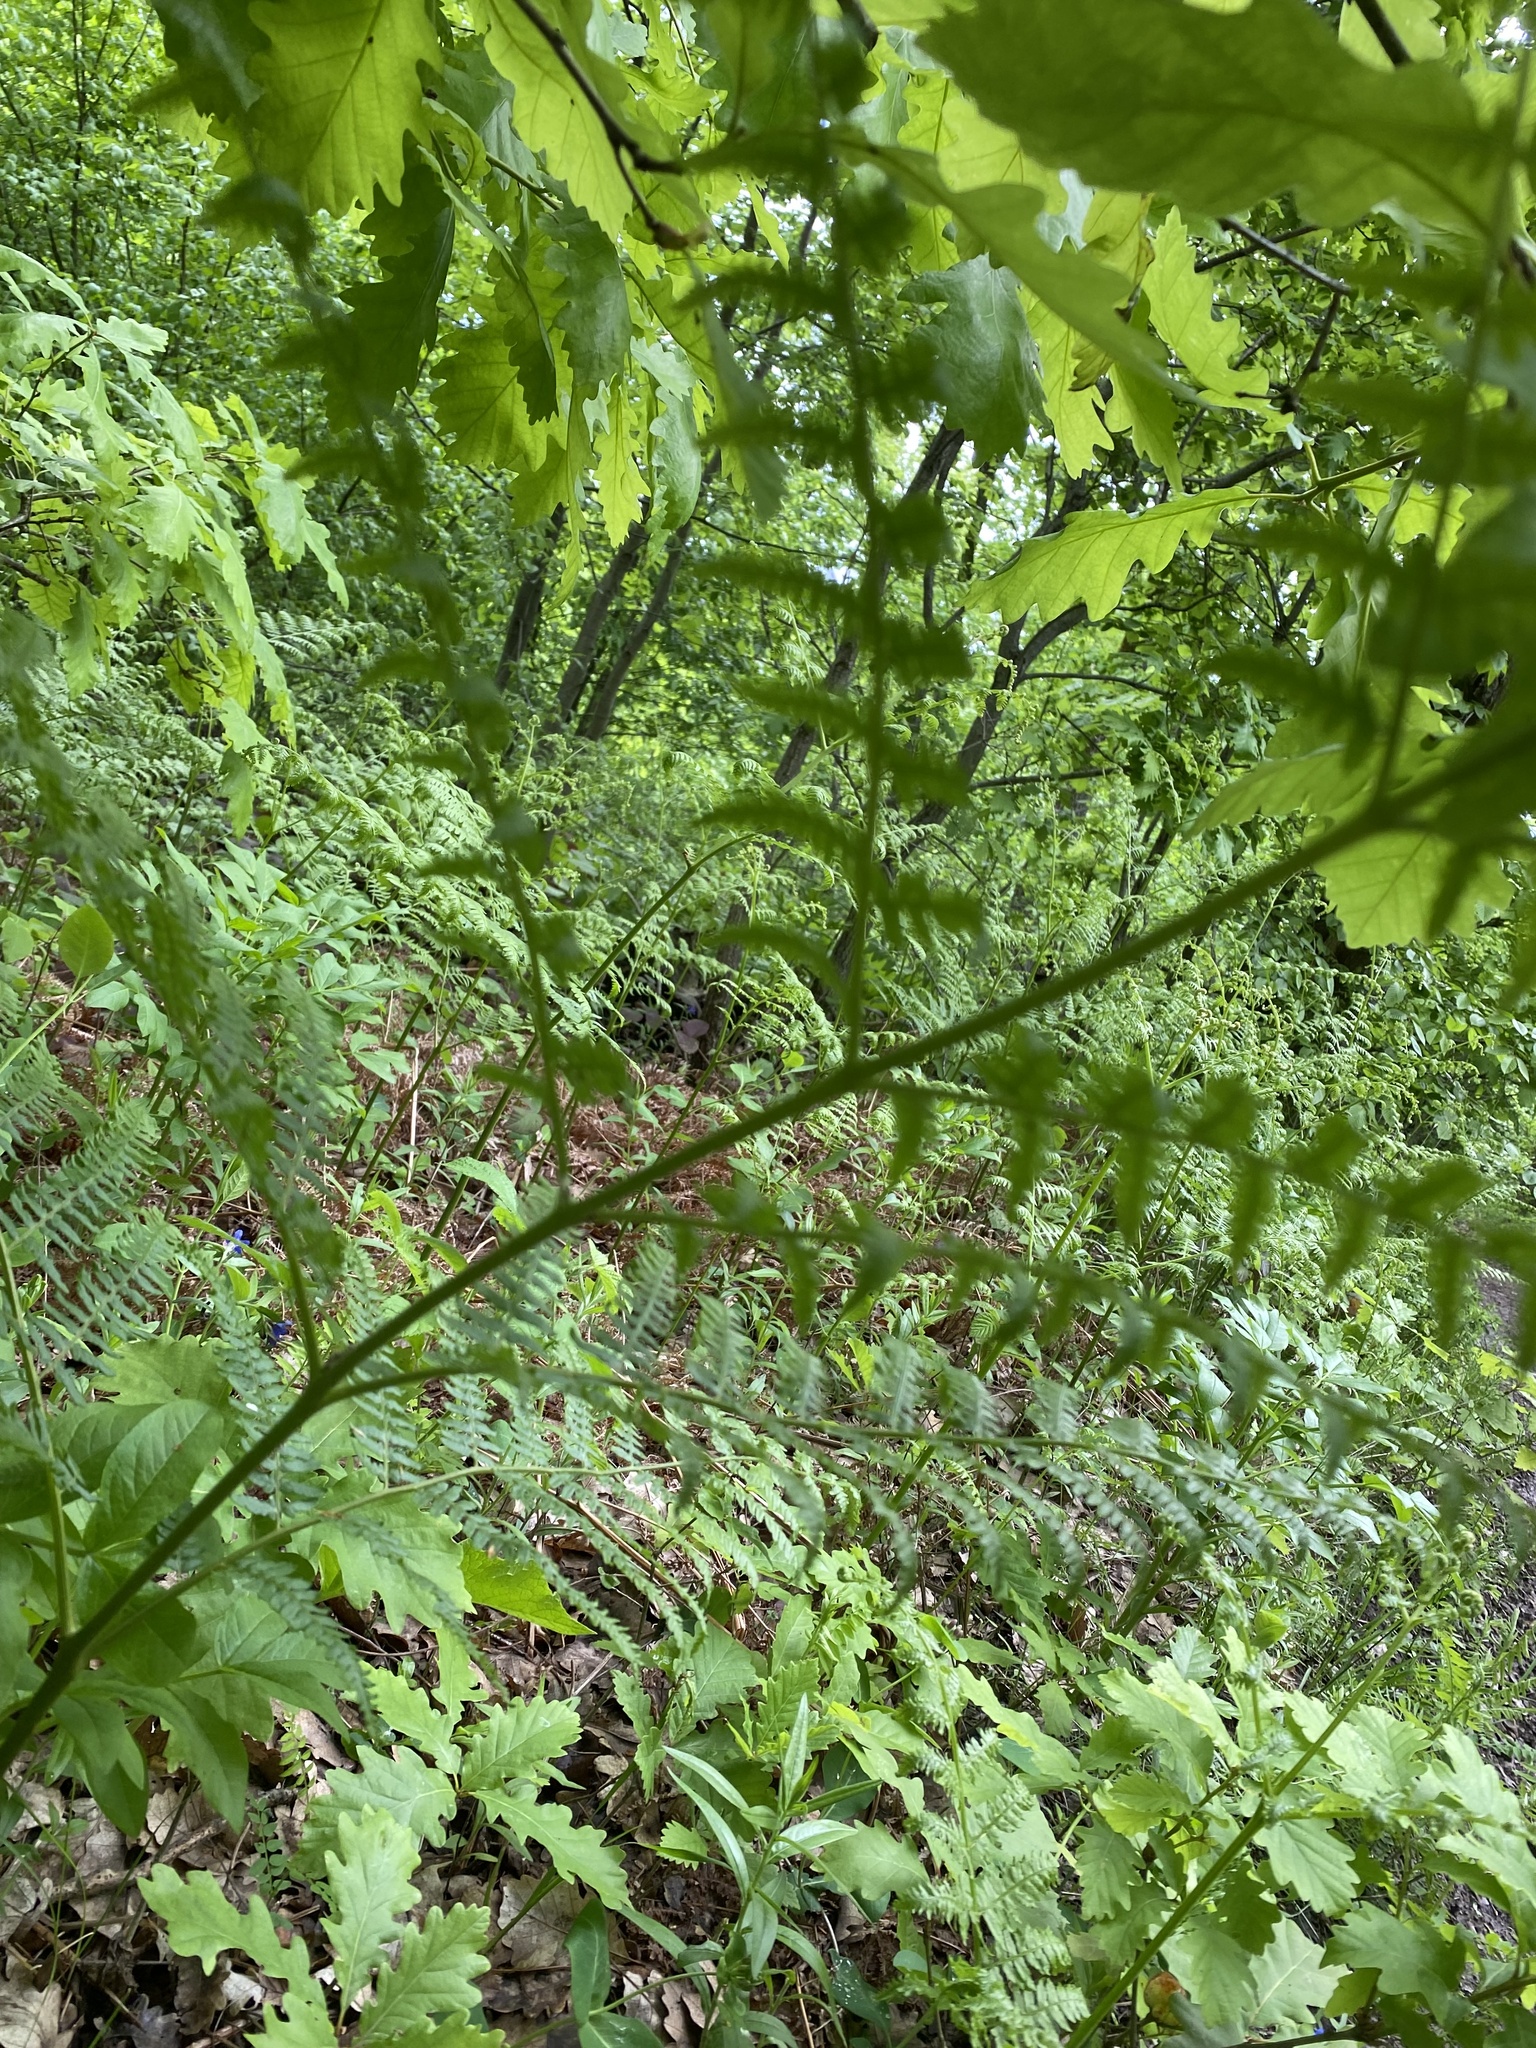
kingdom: Plantae
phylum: Tracheophyta
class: Polypodiopsida
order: Polypodiales
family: Dennstaedtiaceae
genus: Pteridium
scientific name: Pteridium tauricum
